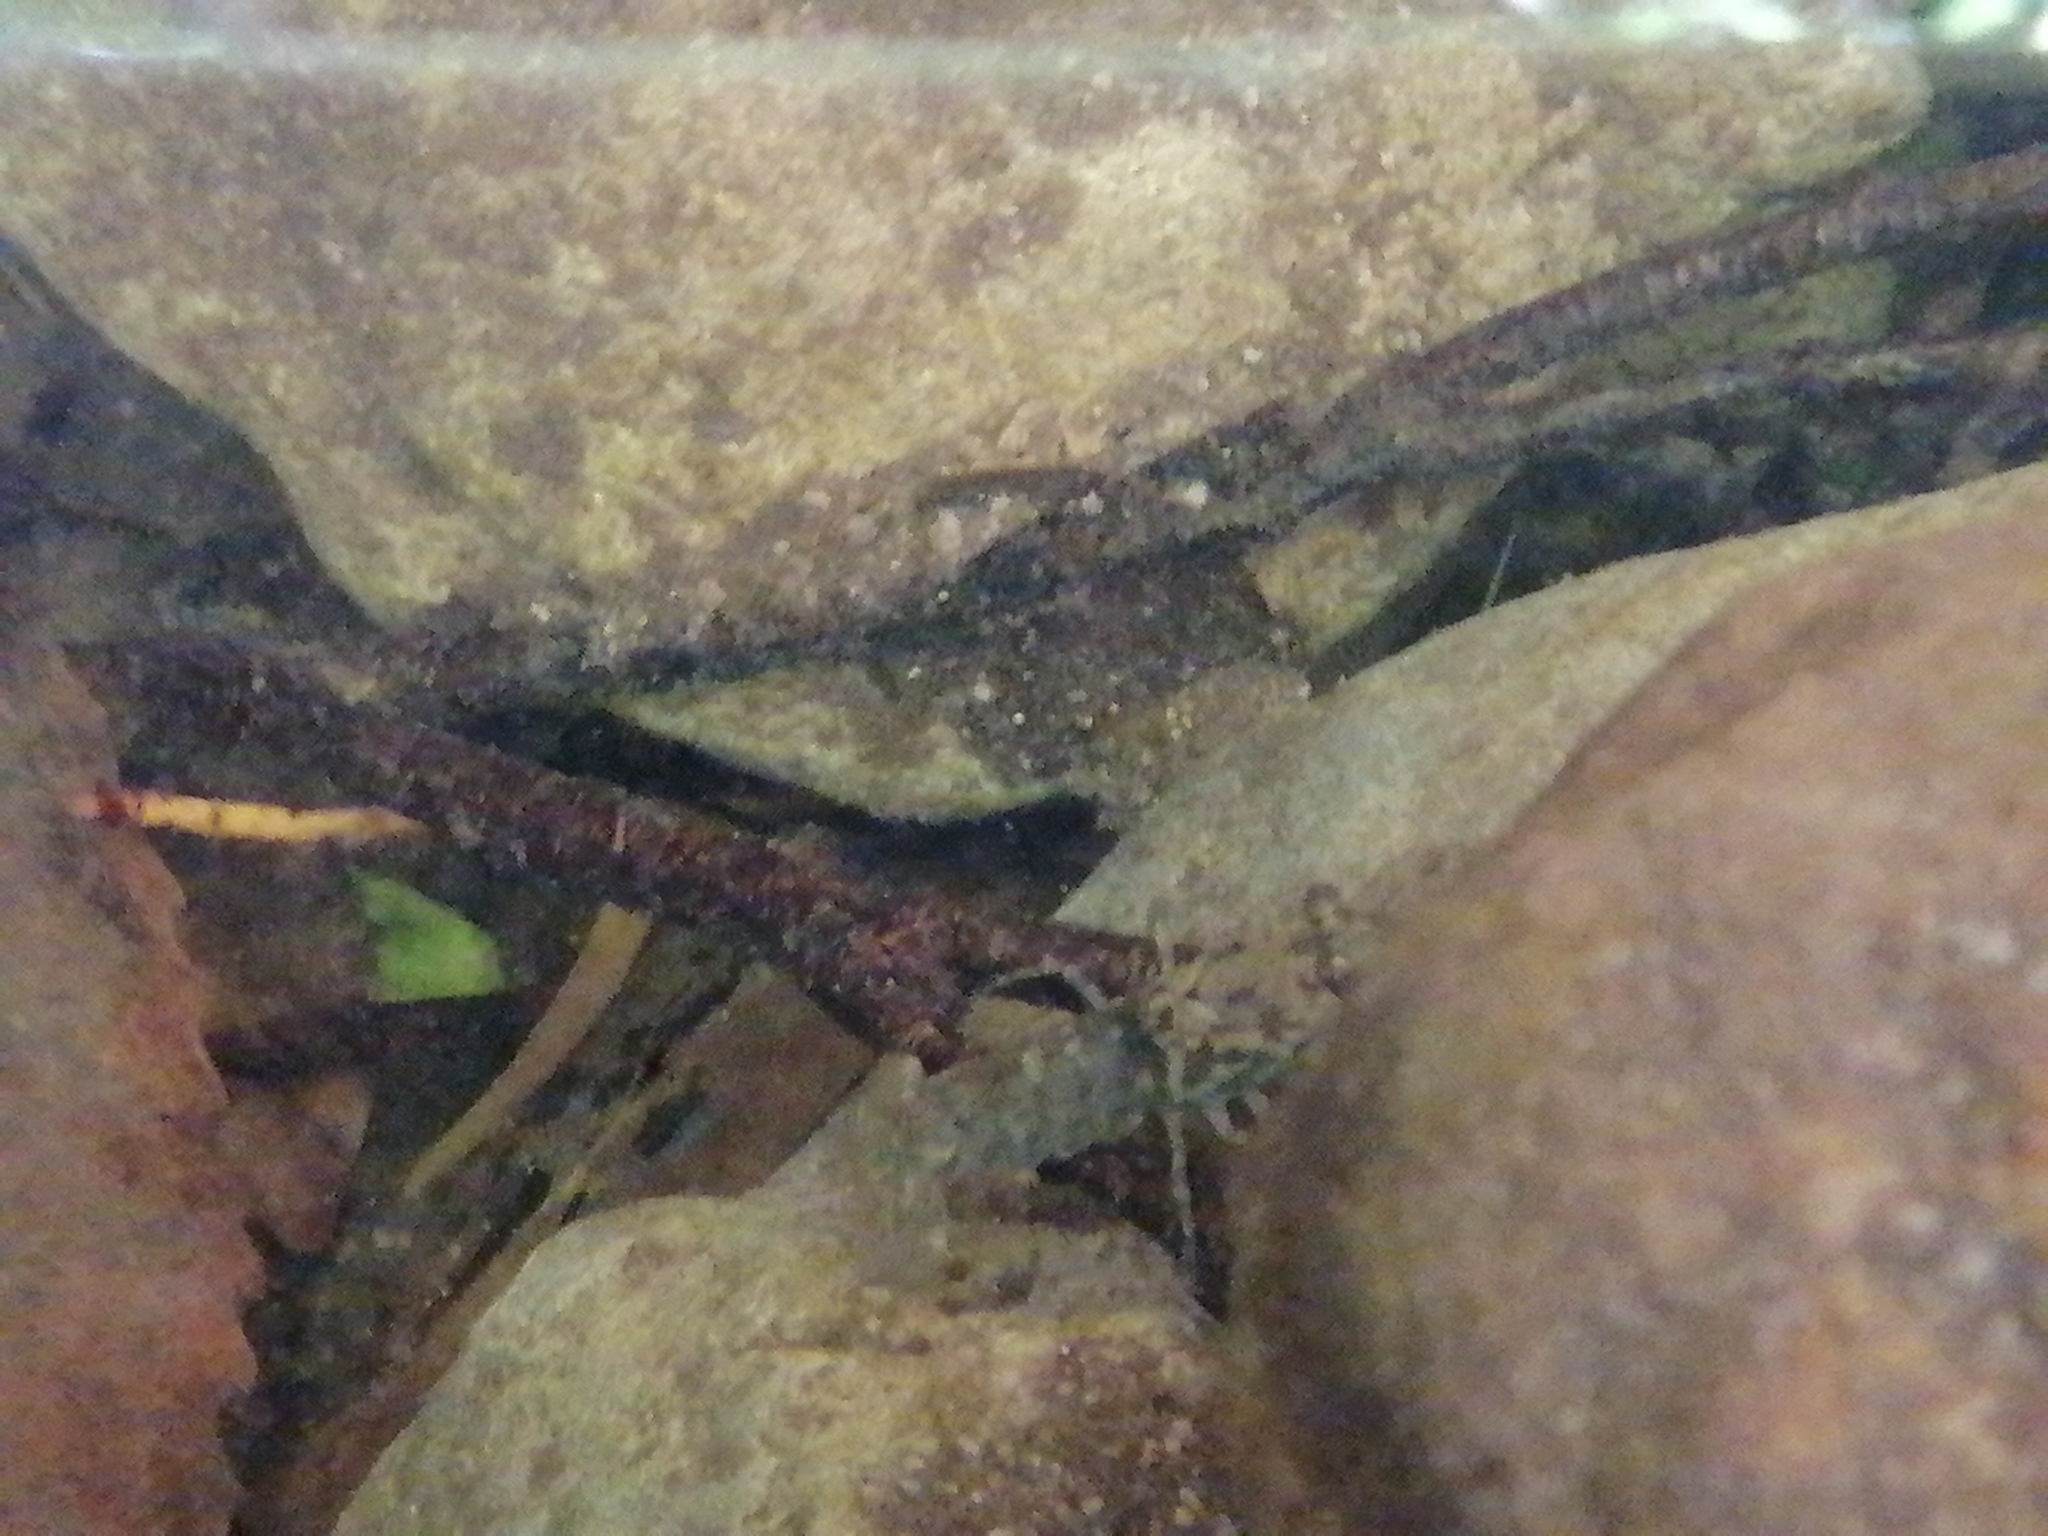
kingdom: Animalia
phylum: Arthropoda
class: Malacostraca
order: Decapoda
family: Parastacidae
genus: Paranephrops
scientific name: Paranephrops planifrons
